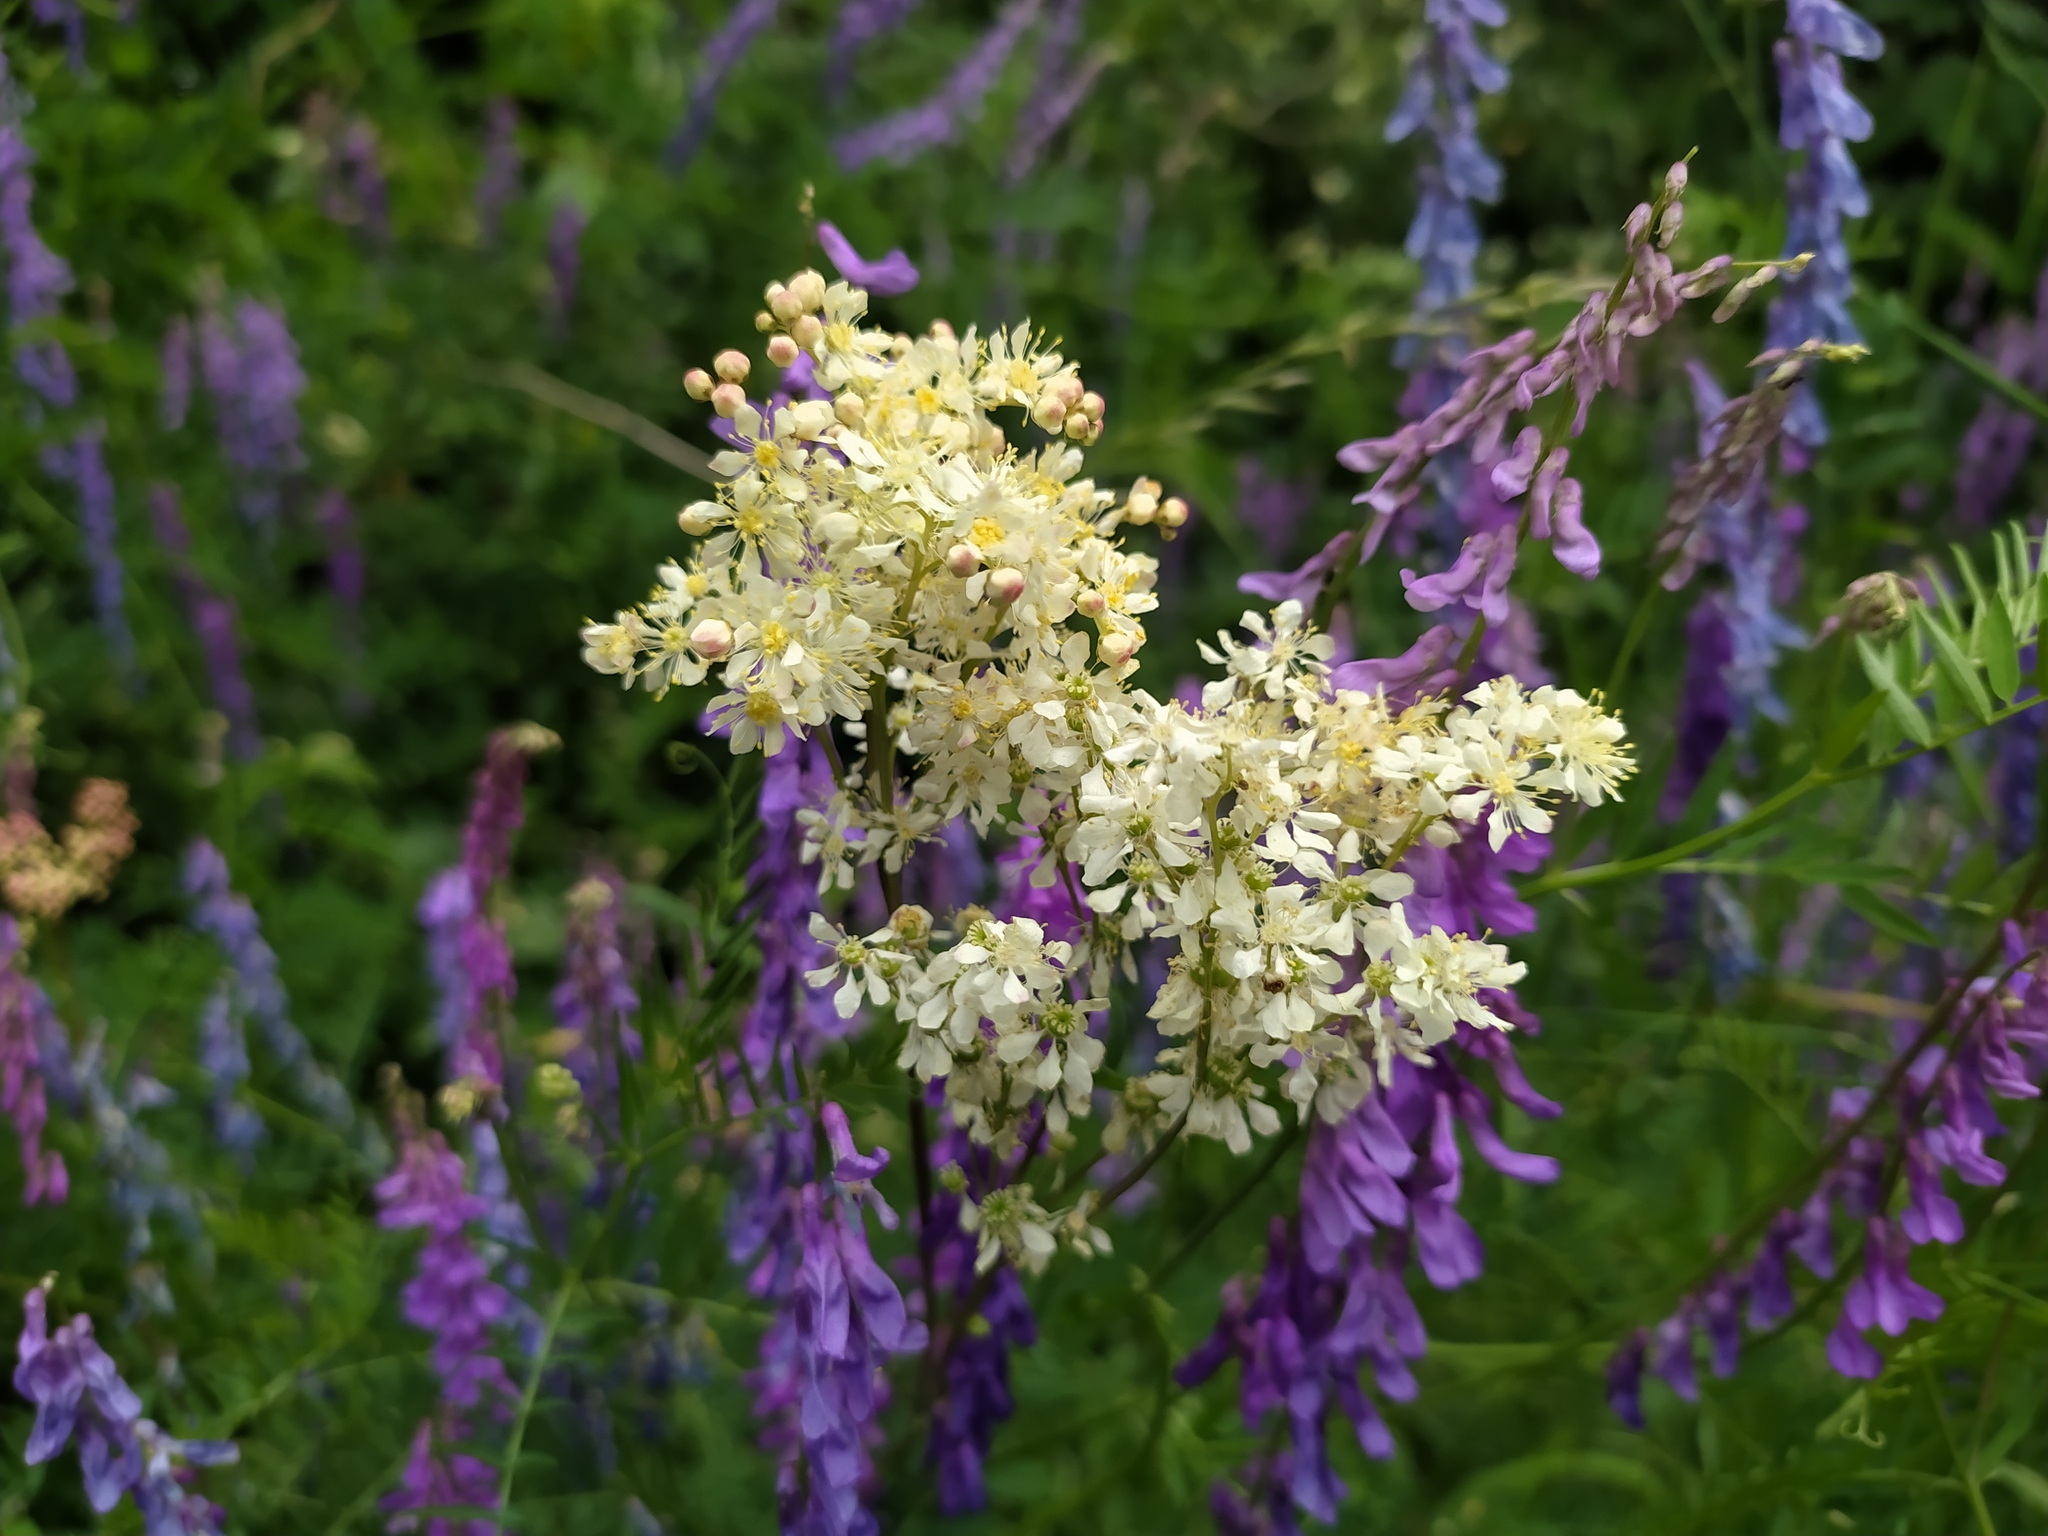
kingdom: Plantae
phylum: Tracheophyta
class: Magnoliopsida
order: Rosales
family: Rosaceae
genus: Filipendula
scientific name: Filipendula vulgaris
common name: Dropwort
